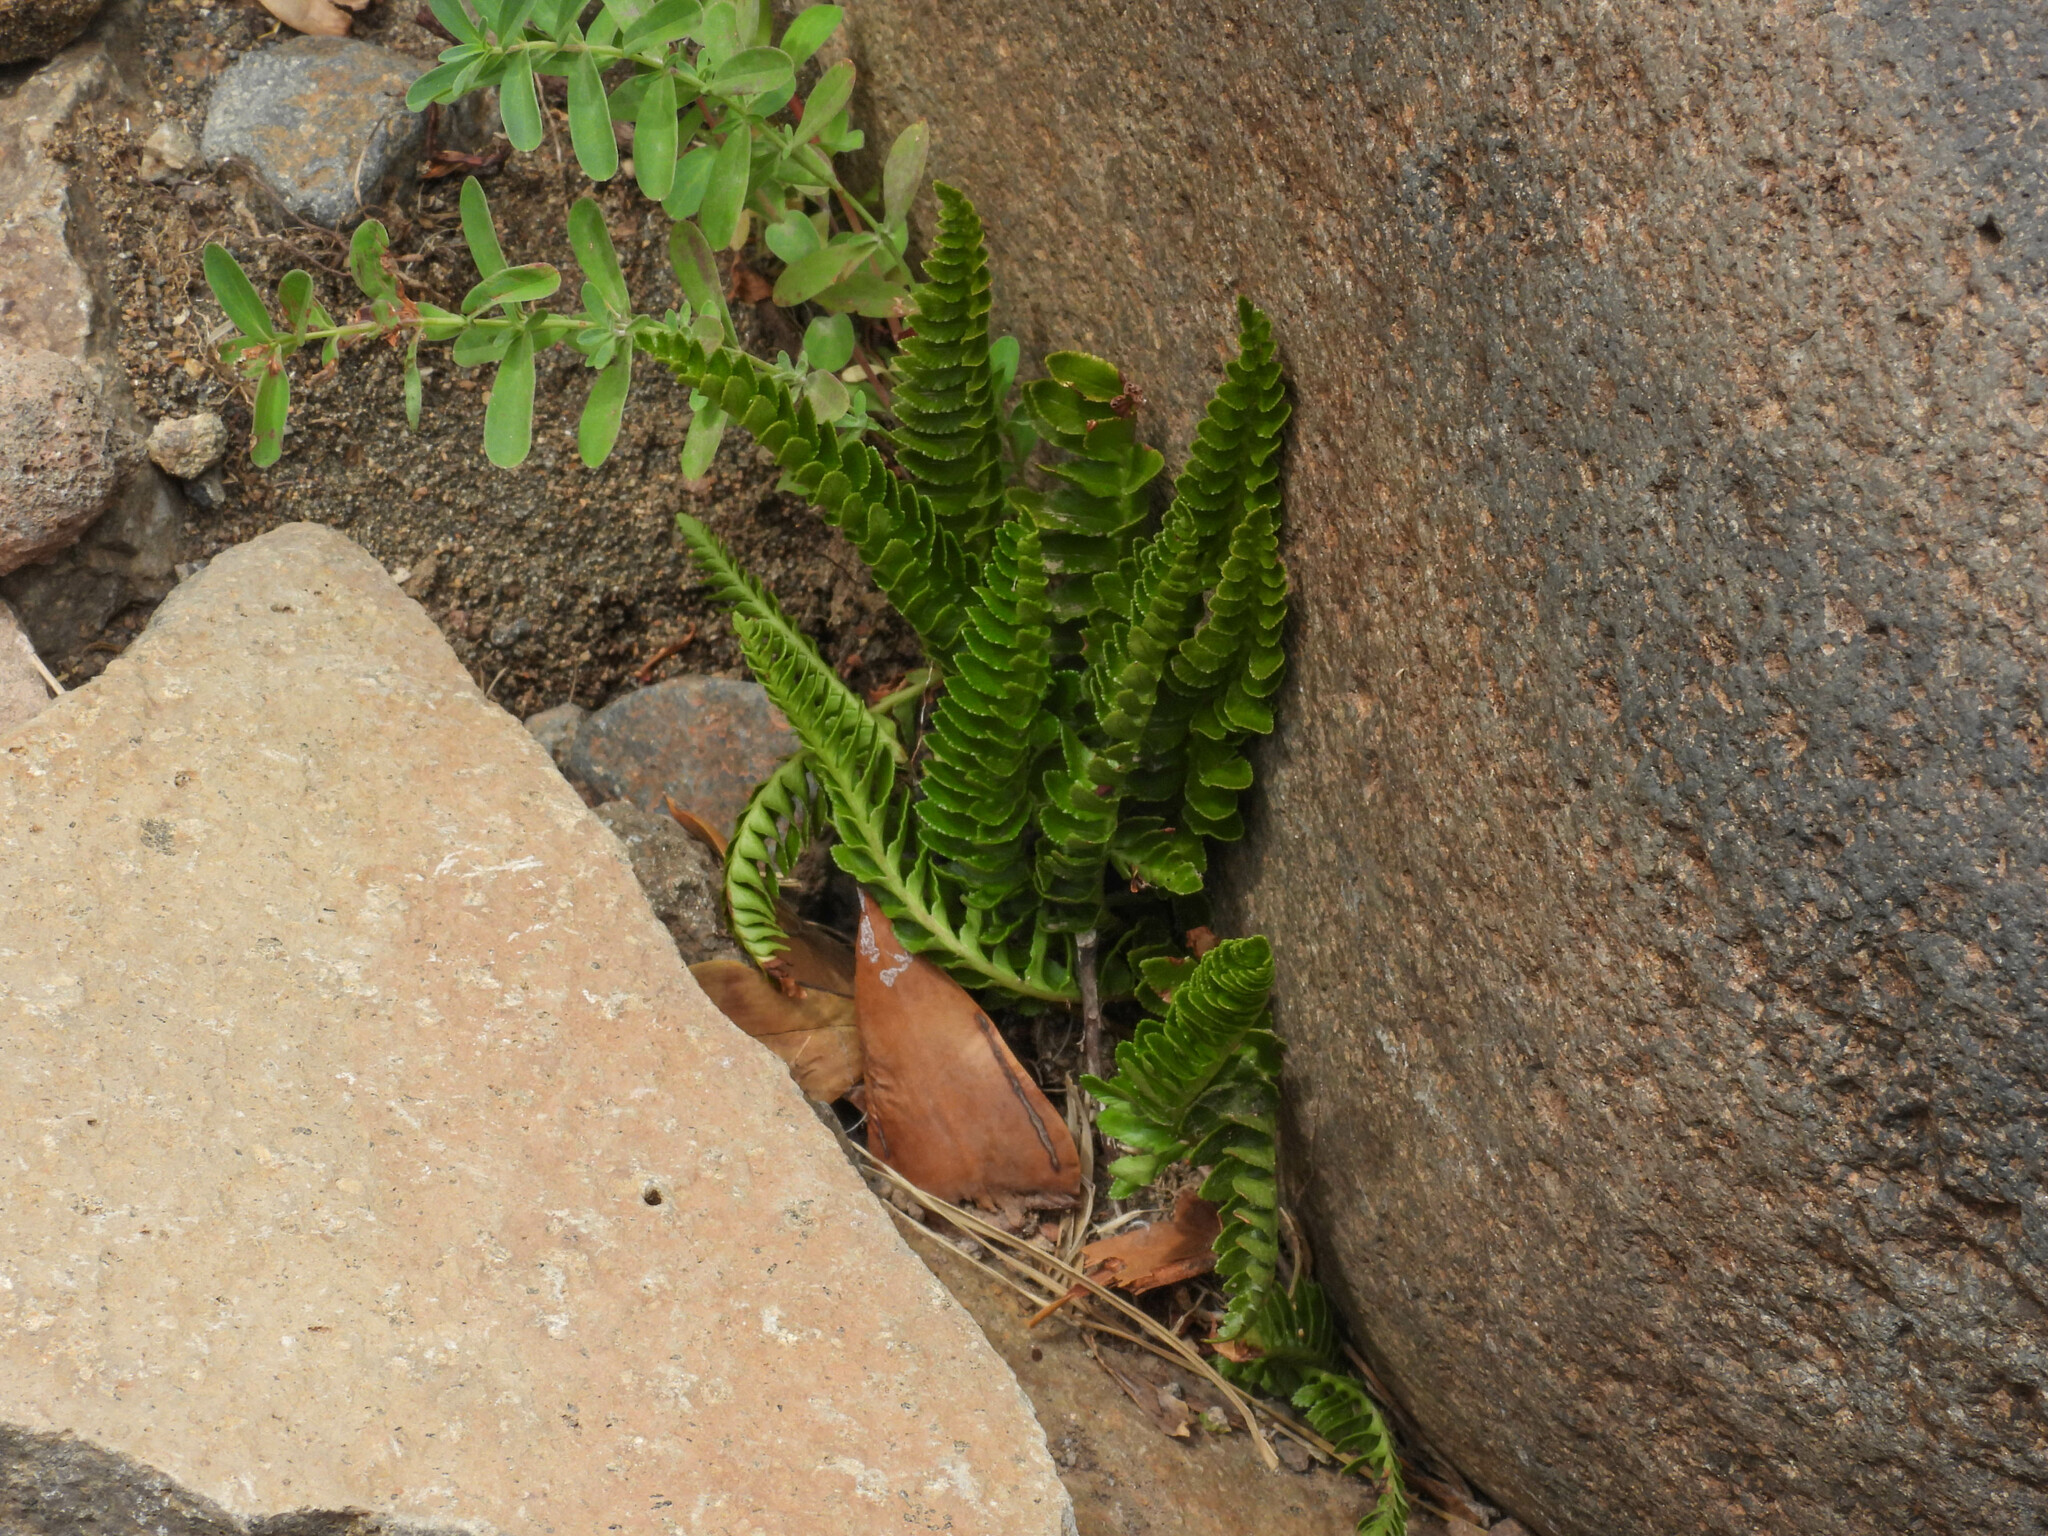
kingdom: Plantae
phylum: Tracheophyta
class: Polypodiopsida
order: Polypodiales
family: Blechnaceae
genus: Austroblechnum
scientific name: Austroblechnum penna-marina
